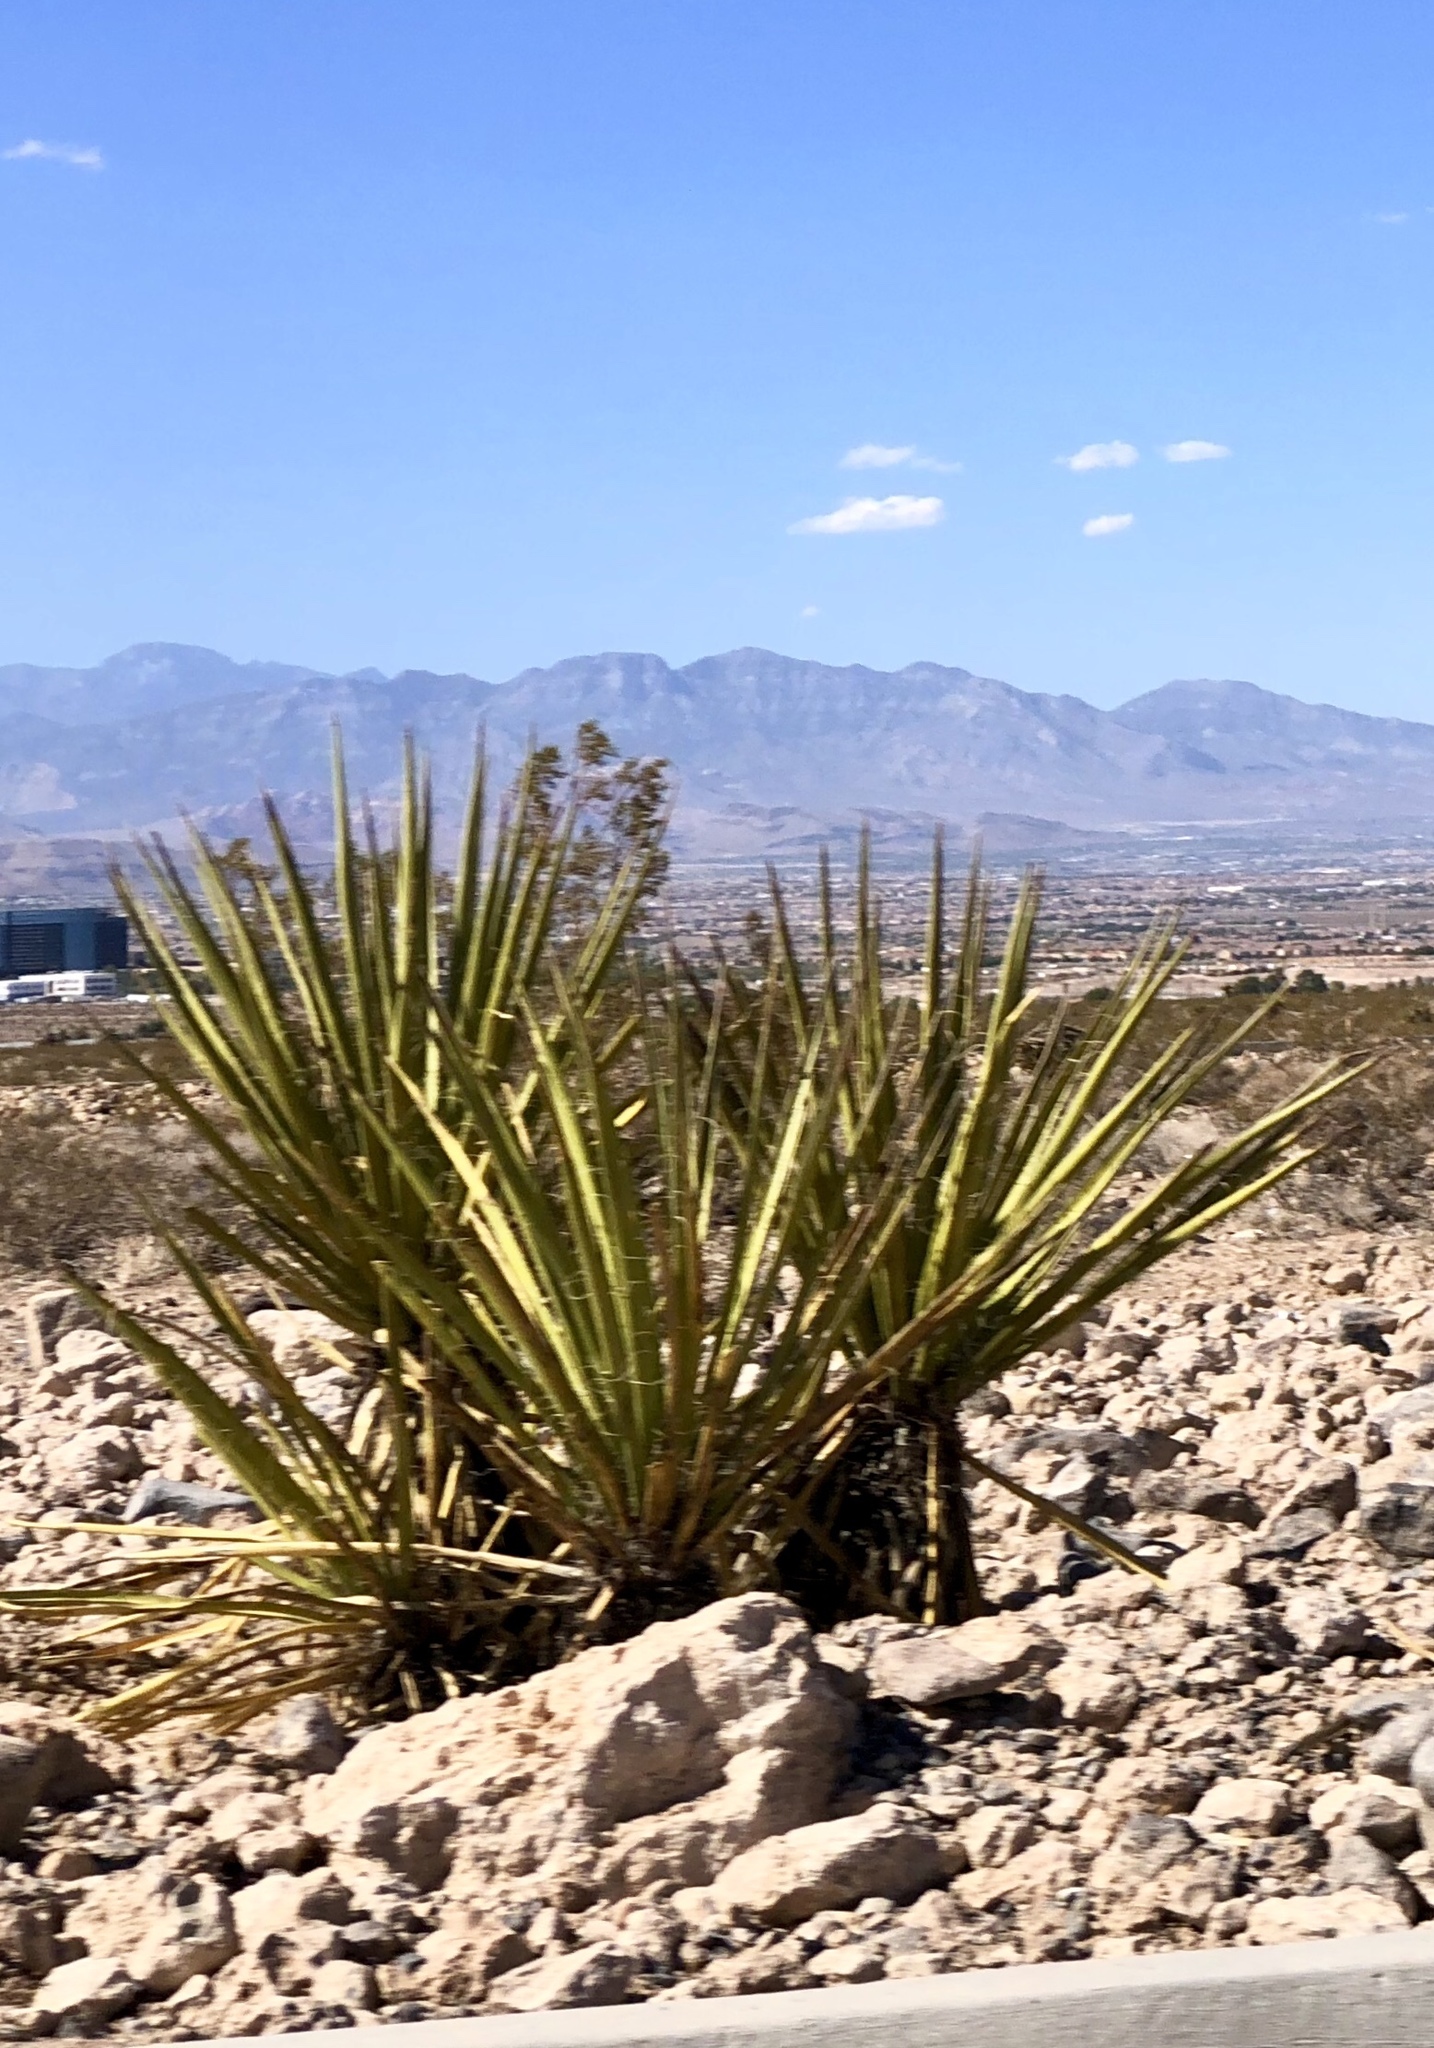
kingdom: Plantae
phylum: Tracheophyta
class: Liliopsida
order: Asparagales
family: Asparagaceae
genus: Yucca
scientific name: Yucca schidigera
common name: Mojave yucca
